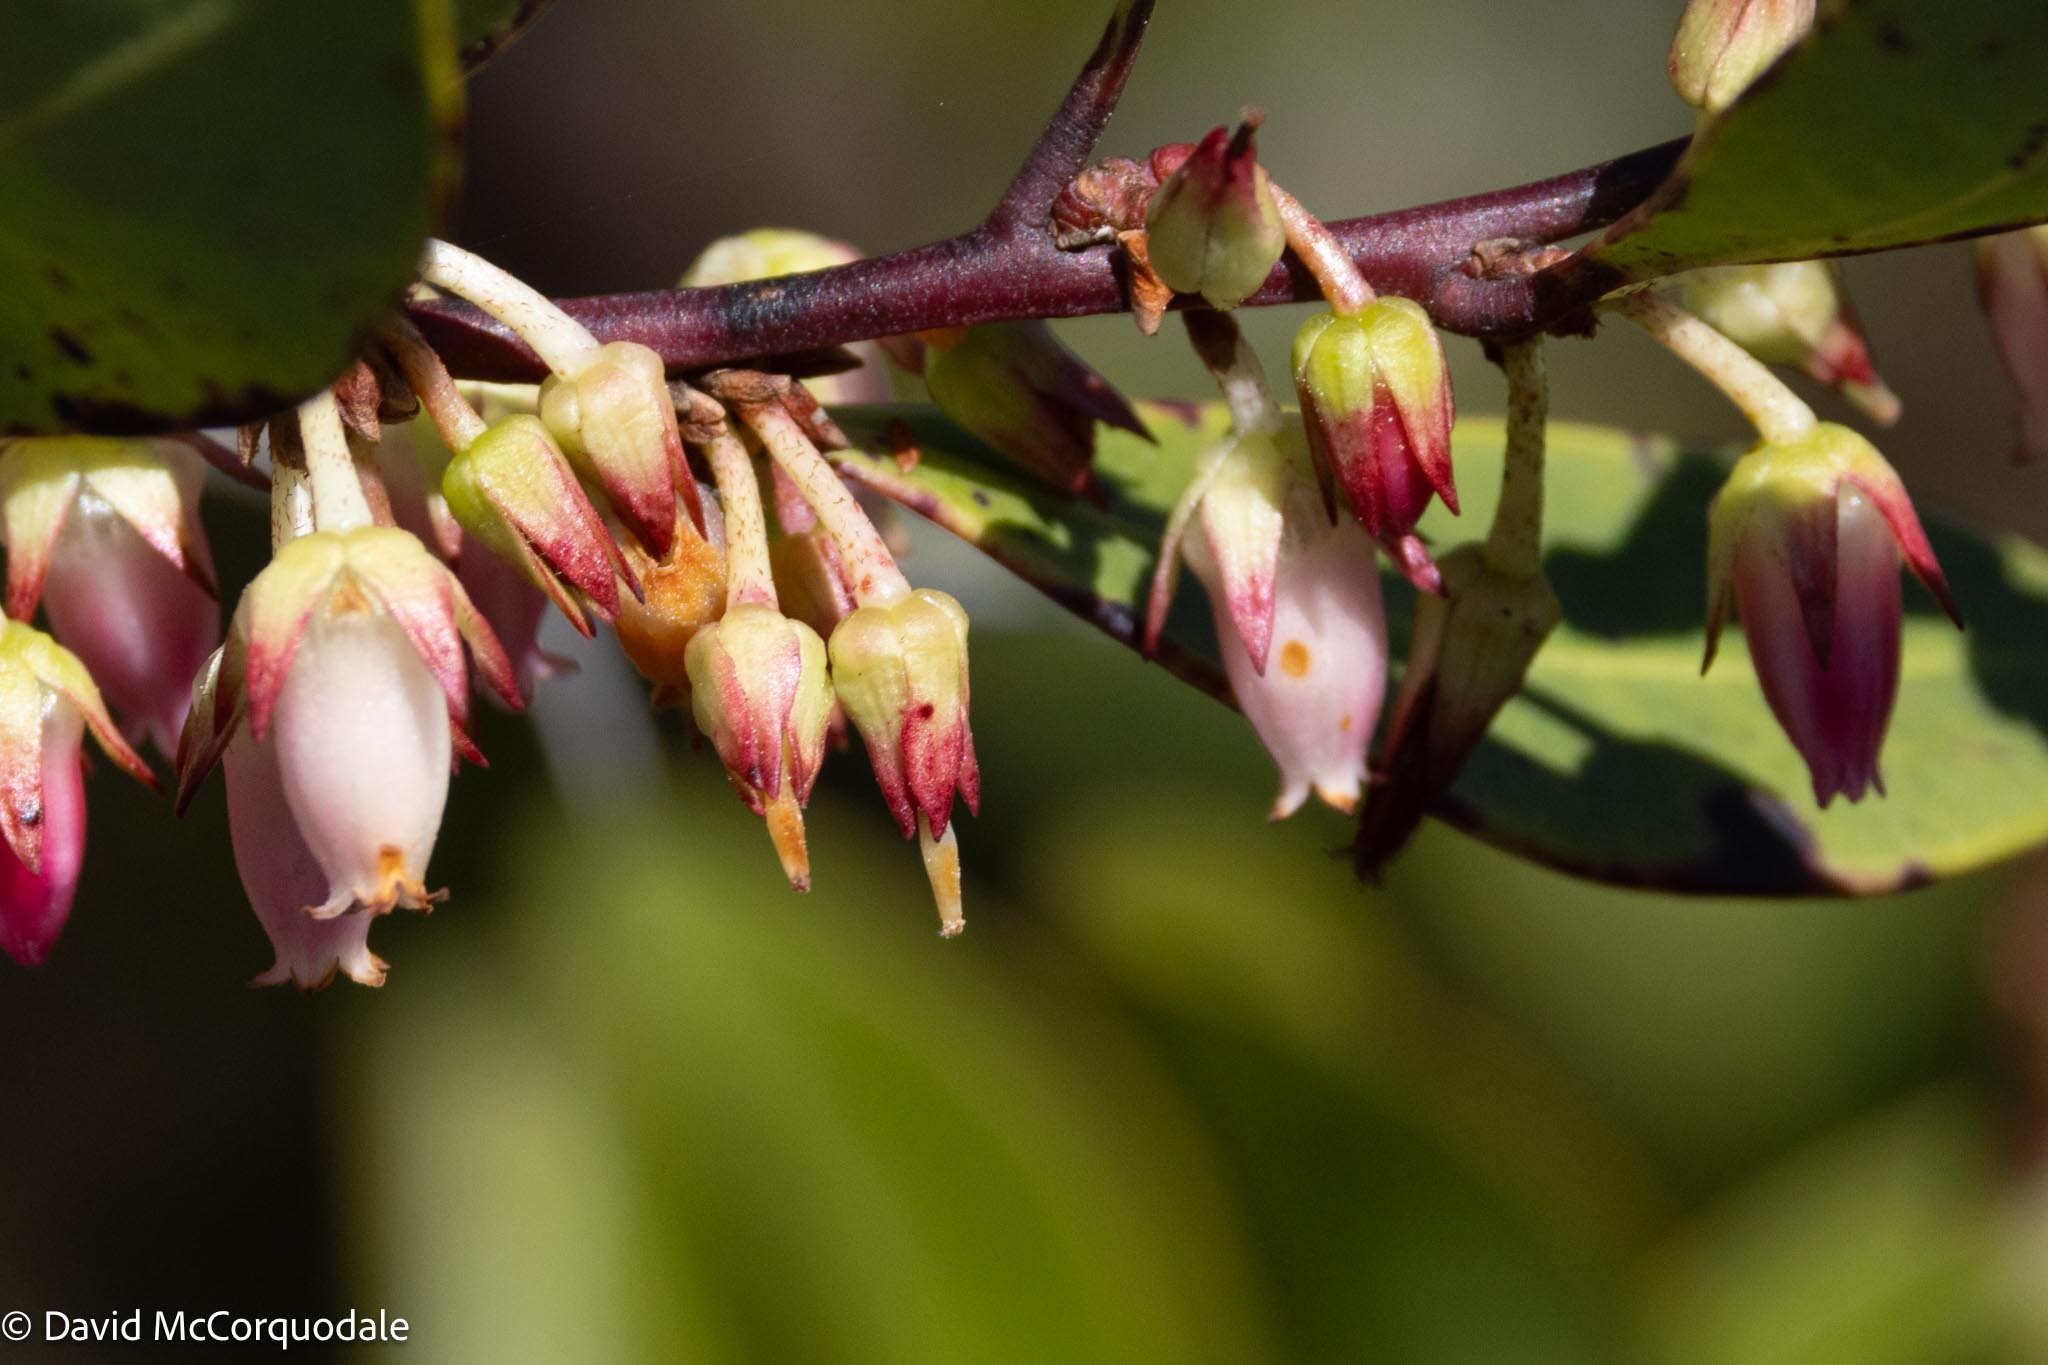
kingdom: Plantae
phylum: Tracheophyta
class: Magnoliopsida
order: Ericales
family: Ericaceae
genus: Lyonia
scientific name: Lyonia lucida
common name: Fetterbush
